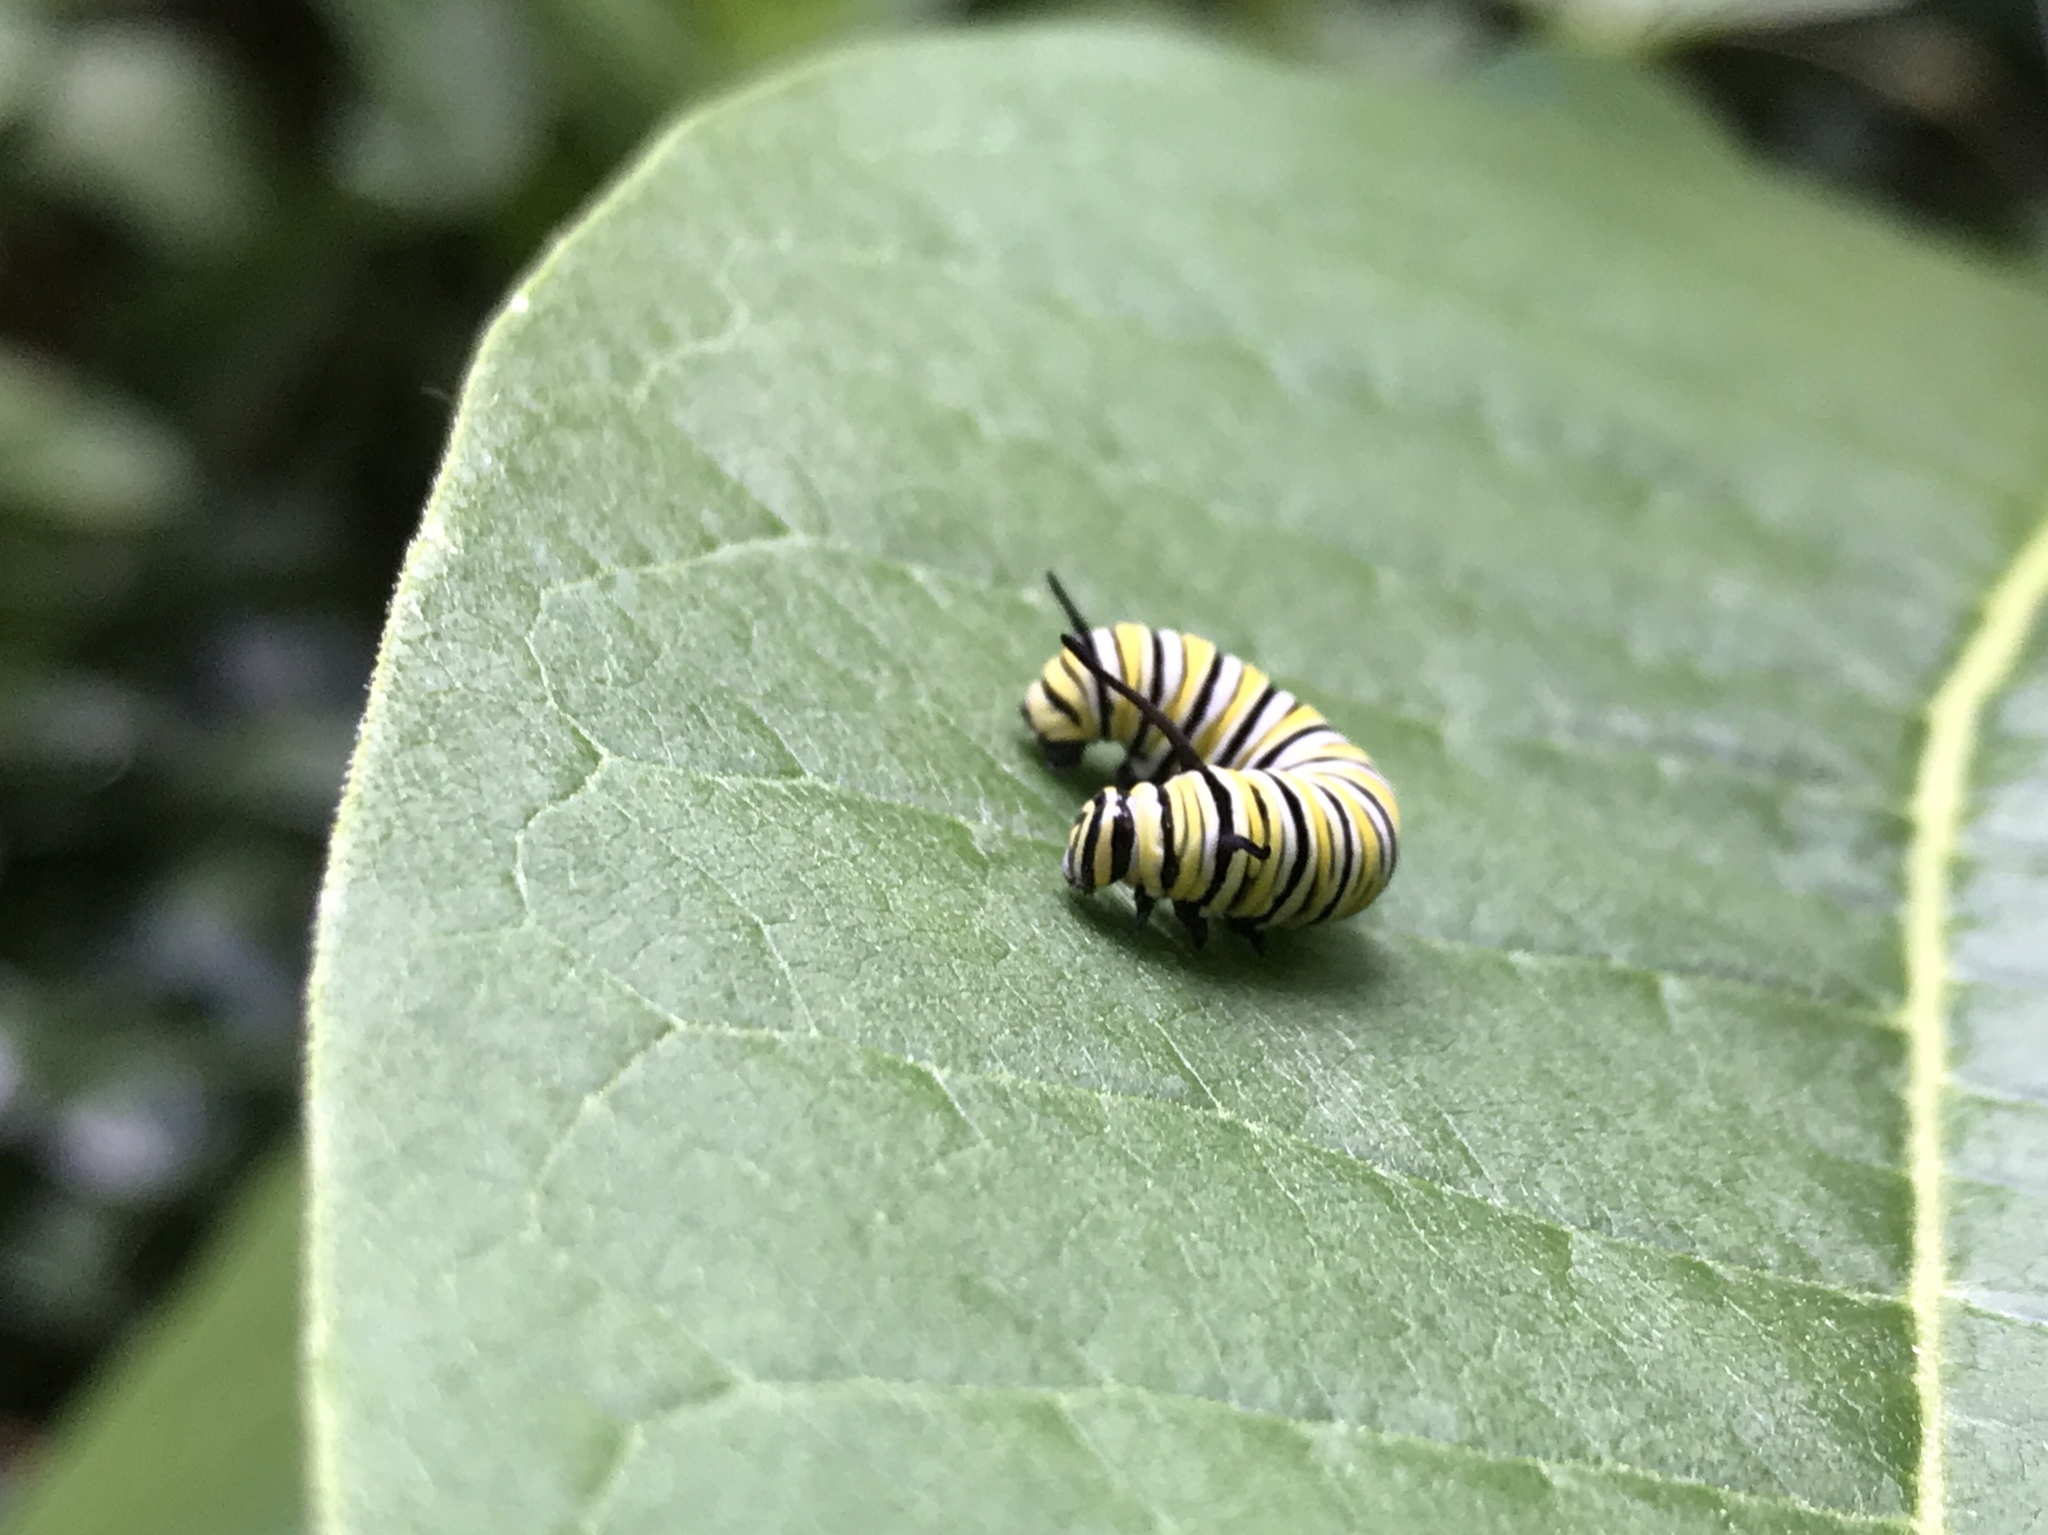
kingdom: Animalia
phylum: Arthropoda
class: Insecta
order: Lepidoptera
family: Nymphalidae
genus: Danaus
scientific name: Danaus plexippus
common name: Monarch
